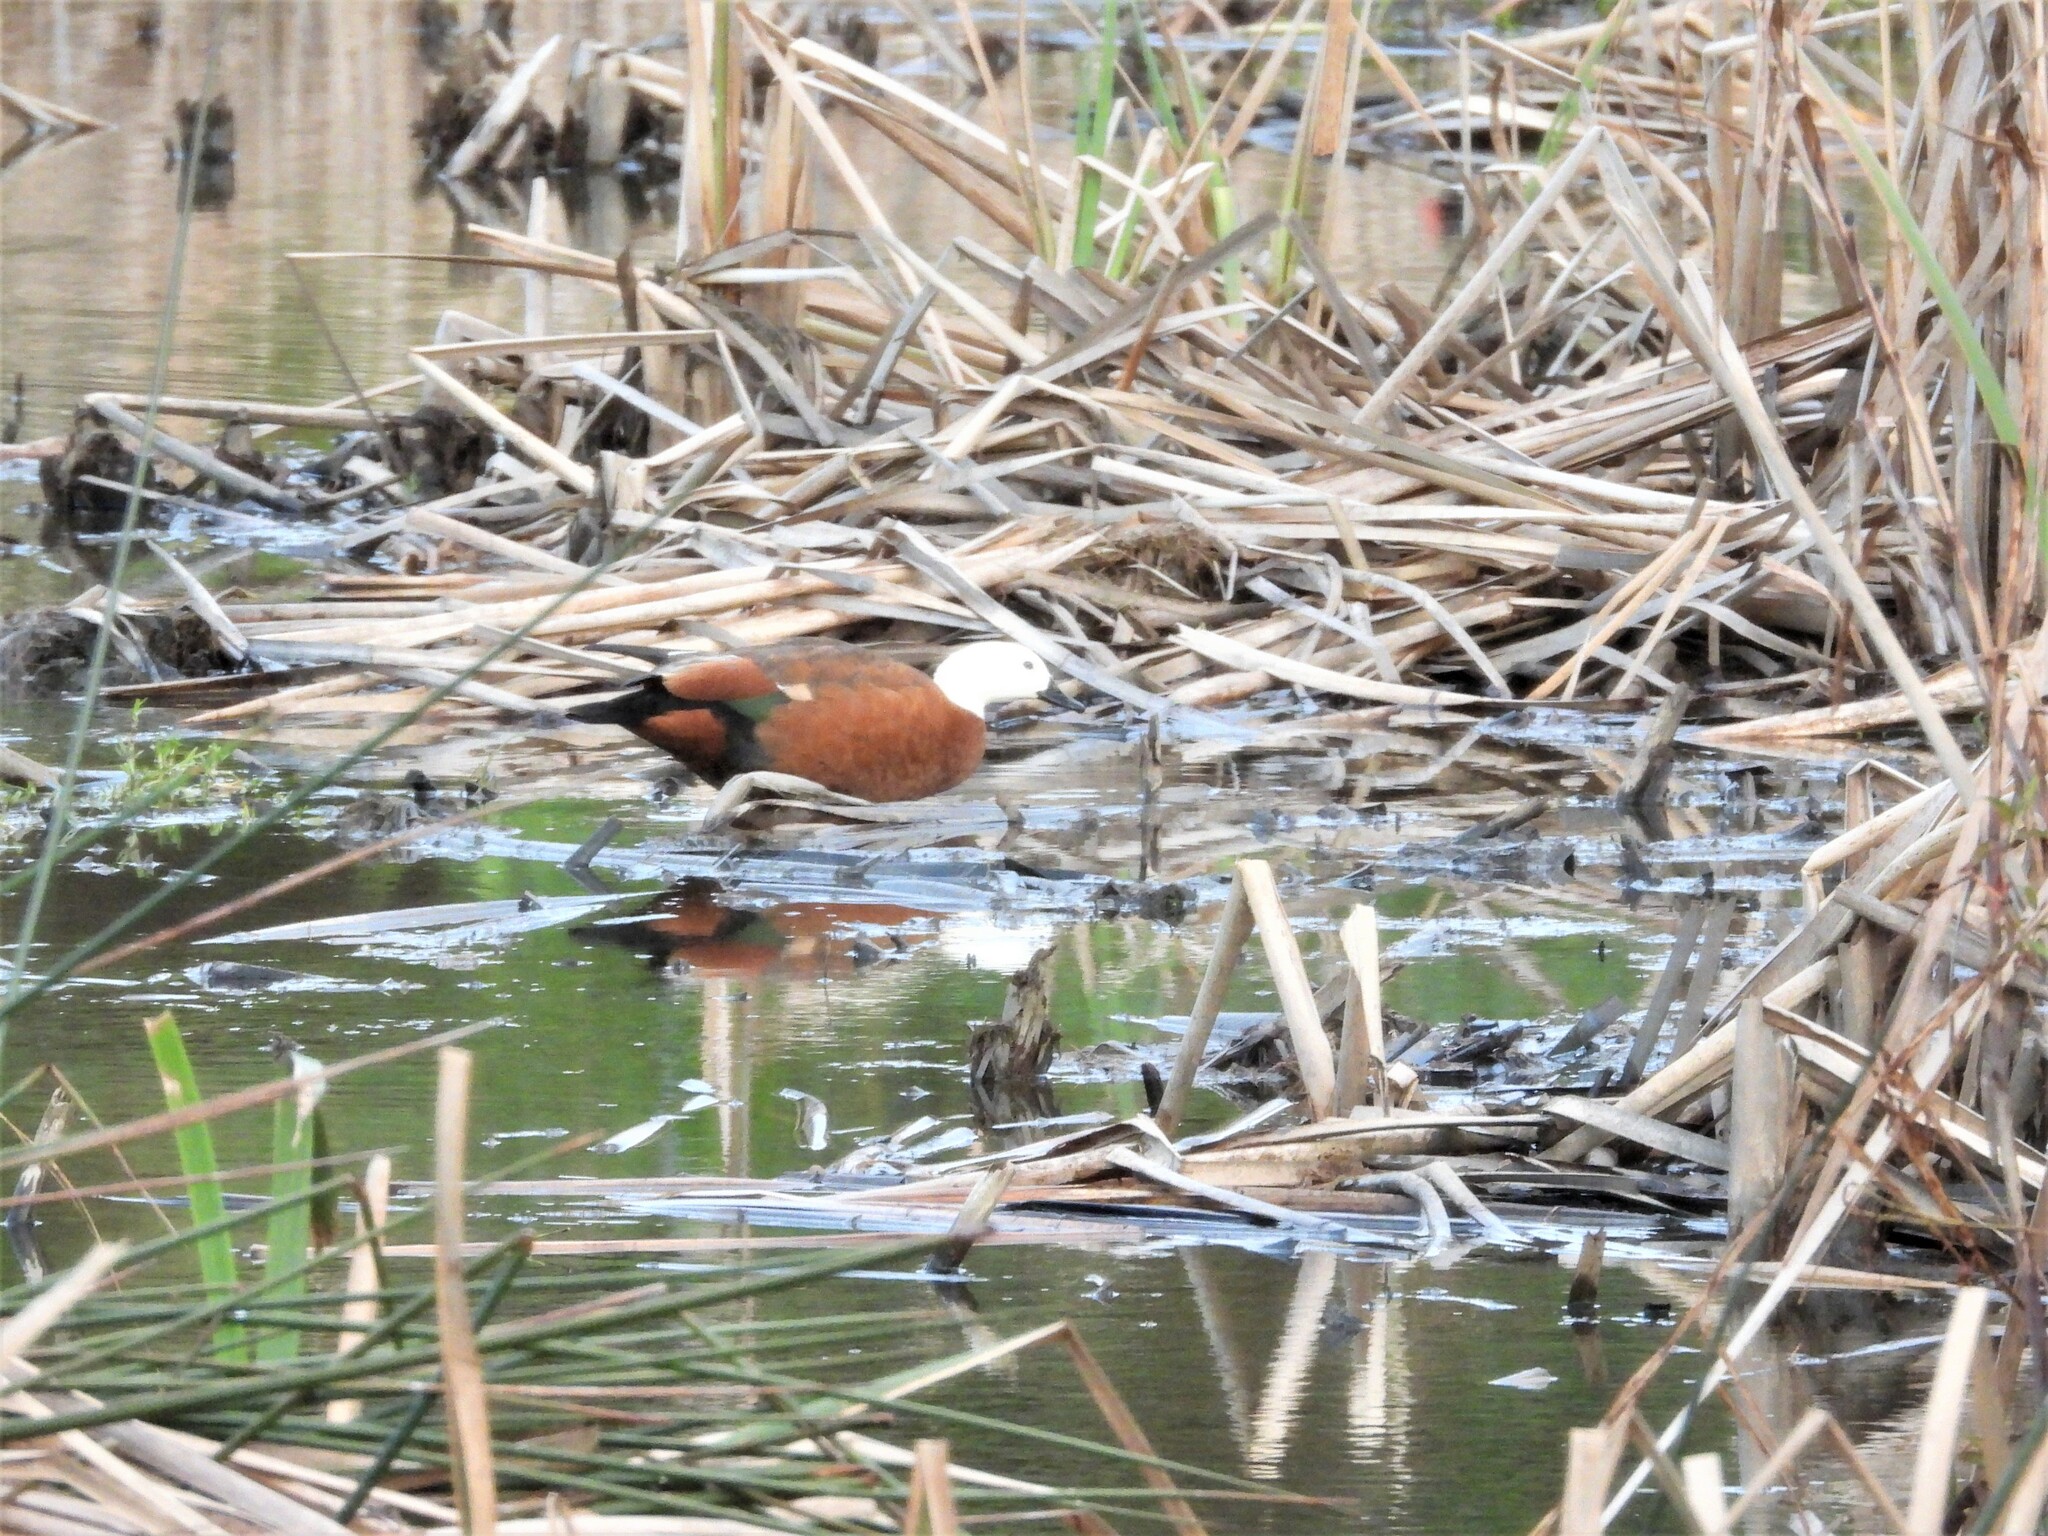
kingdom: Animalia
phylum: Chordata
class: Aves
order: Anseriformes
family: Anatidae
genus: Tadorna
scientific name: Tadorna variegata
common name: Paradise shelduck
